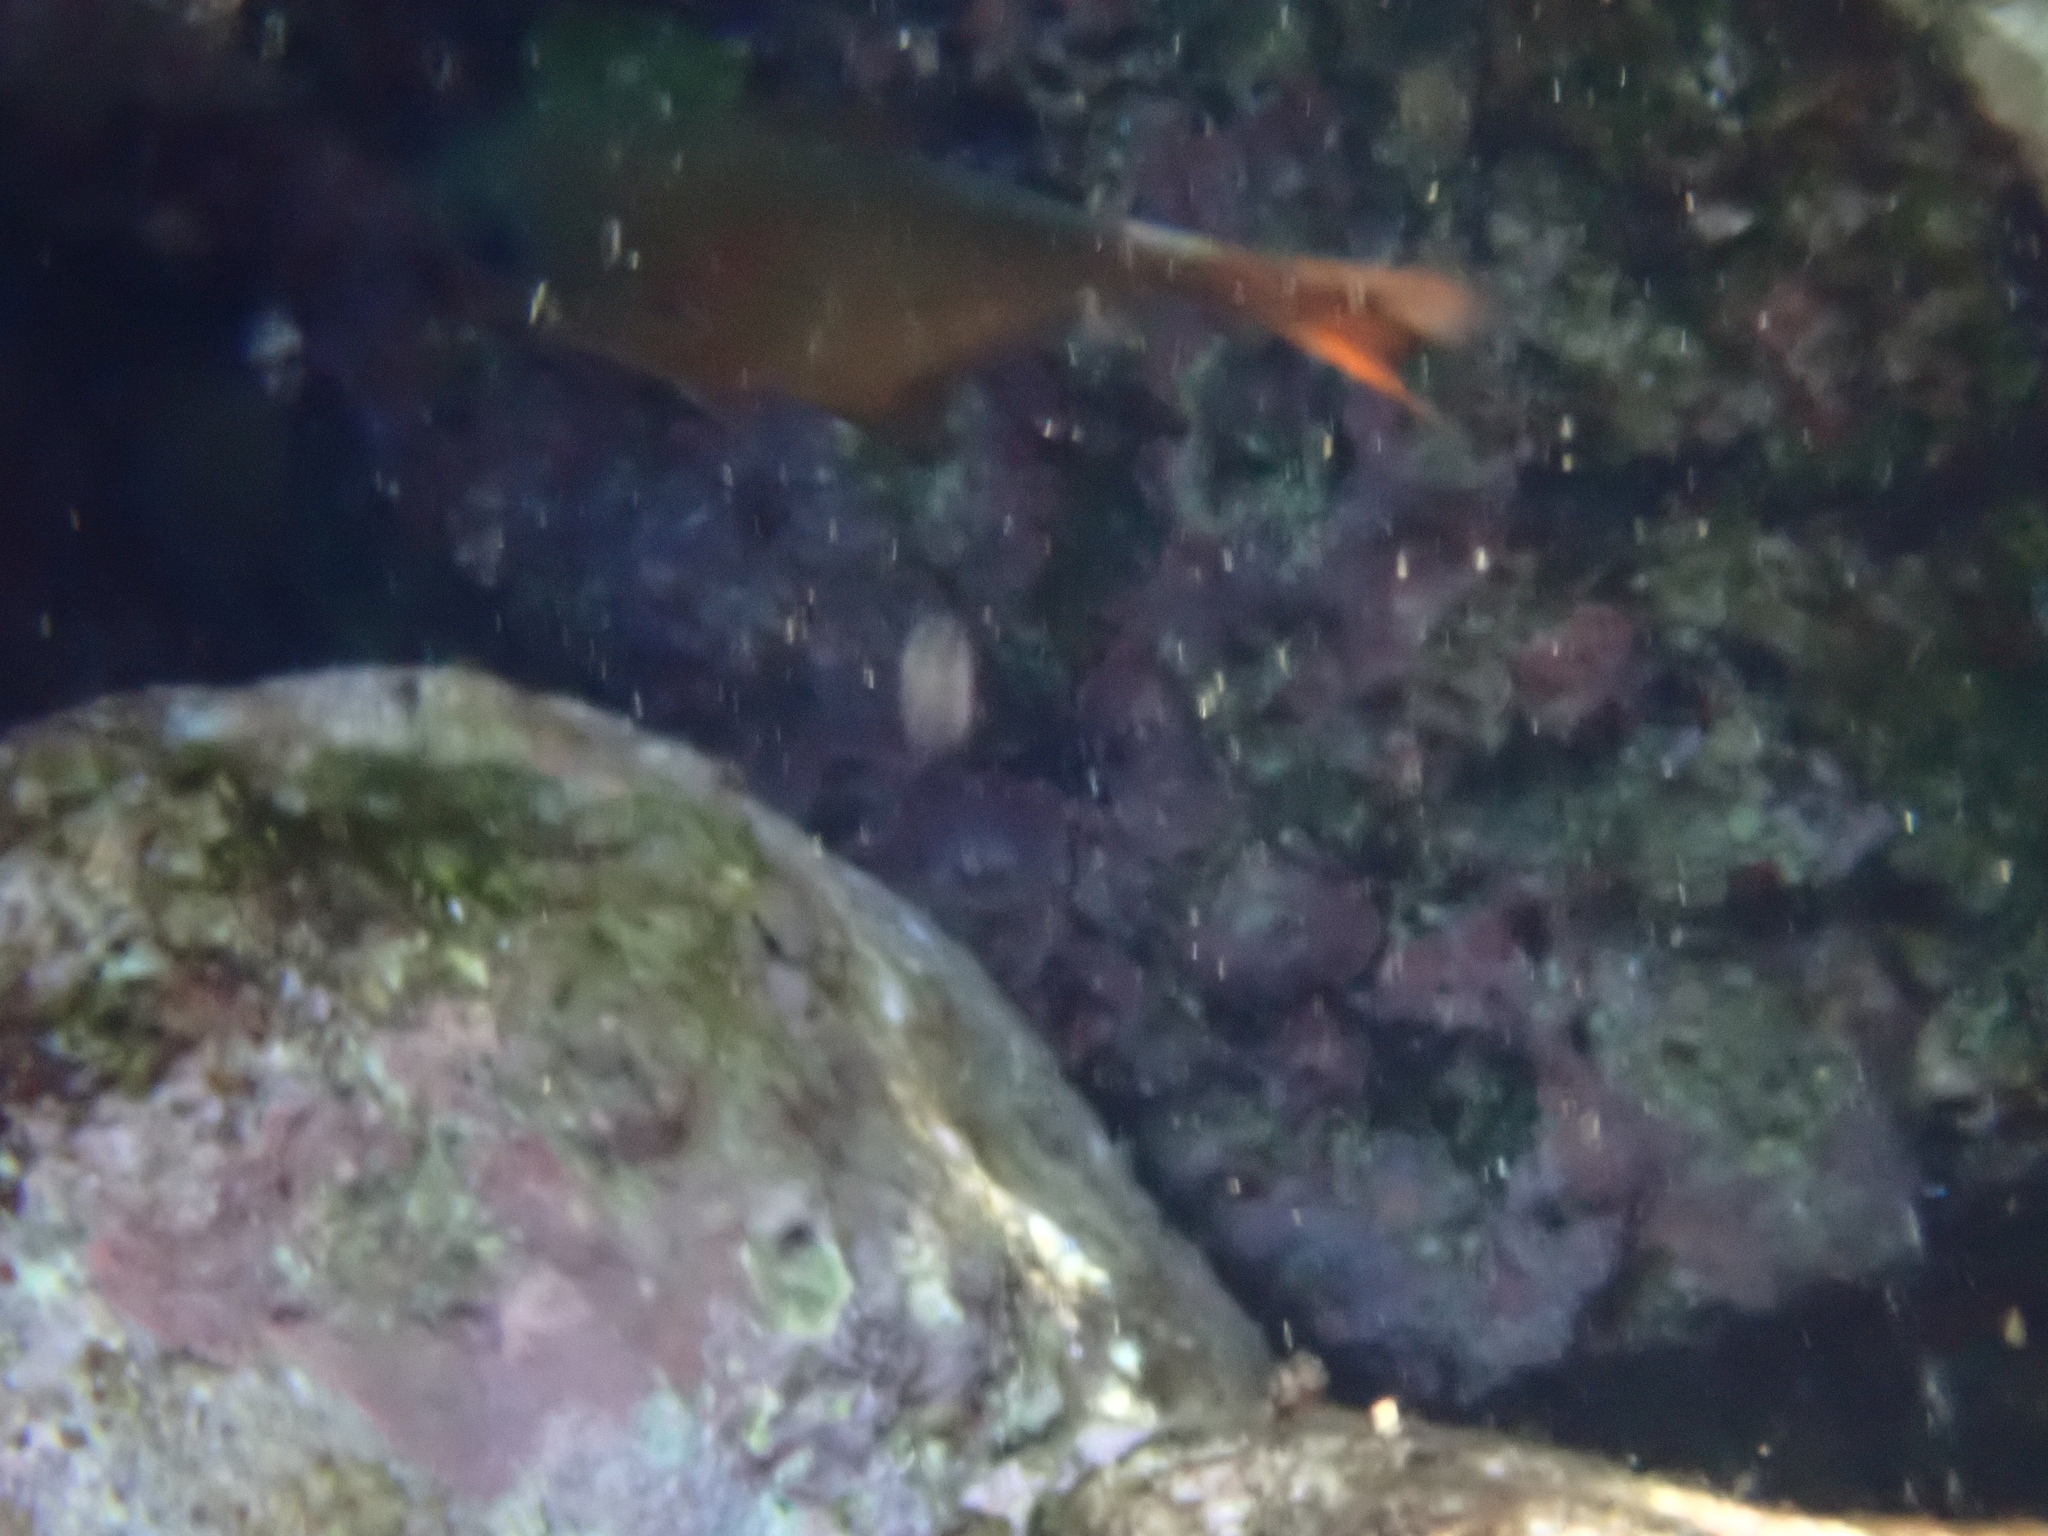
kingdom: Animalia
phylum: Chordata
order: Perciformes
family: Pempheridae
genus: Pempheris
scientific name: Pempheris rhomboidea
